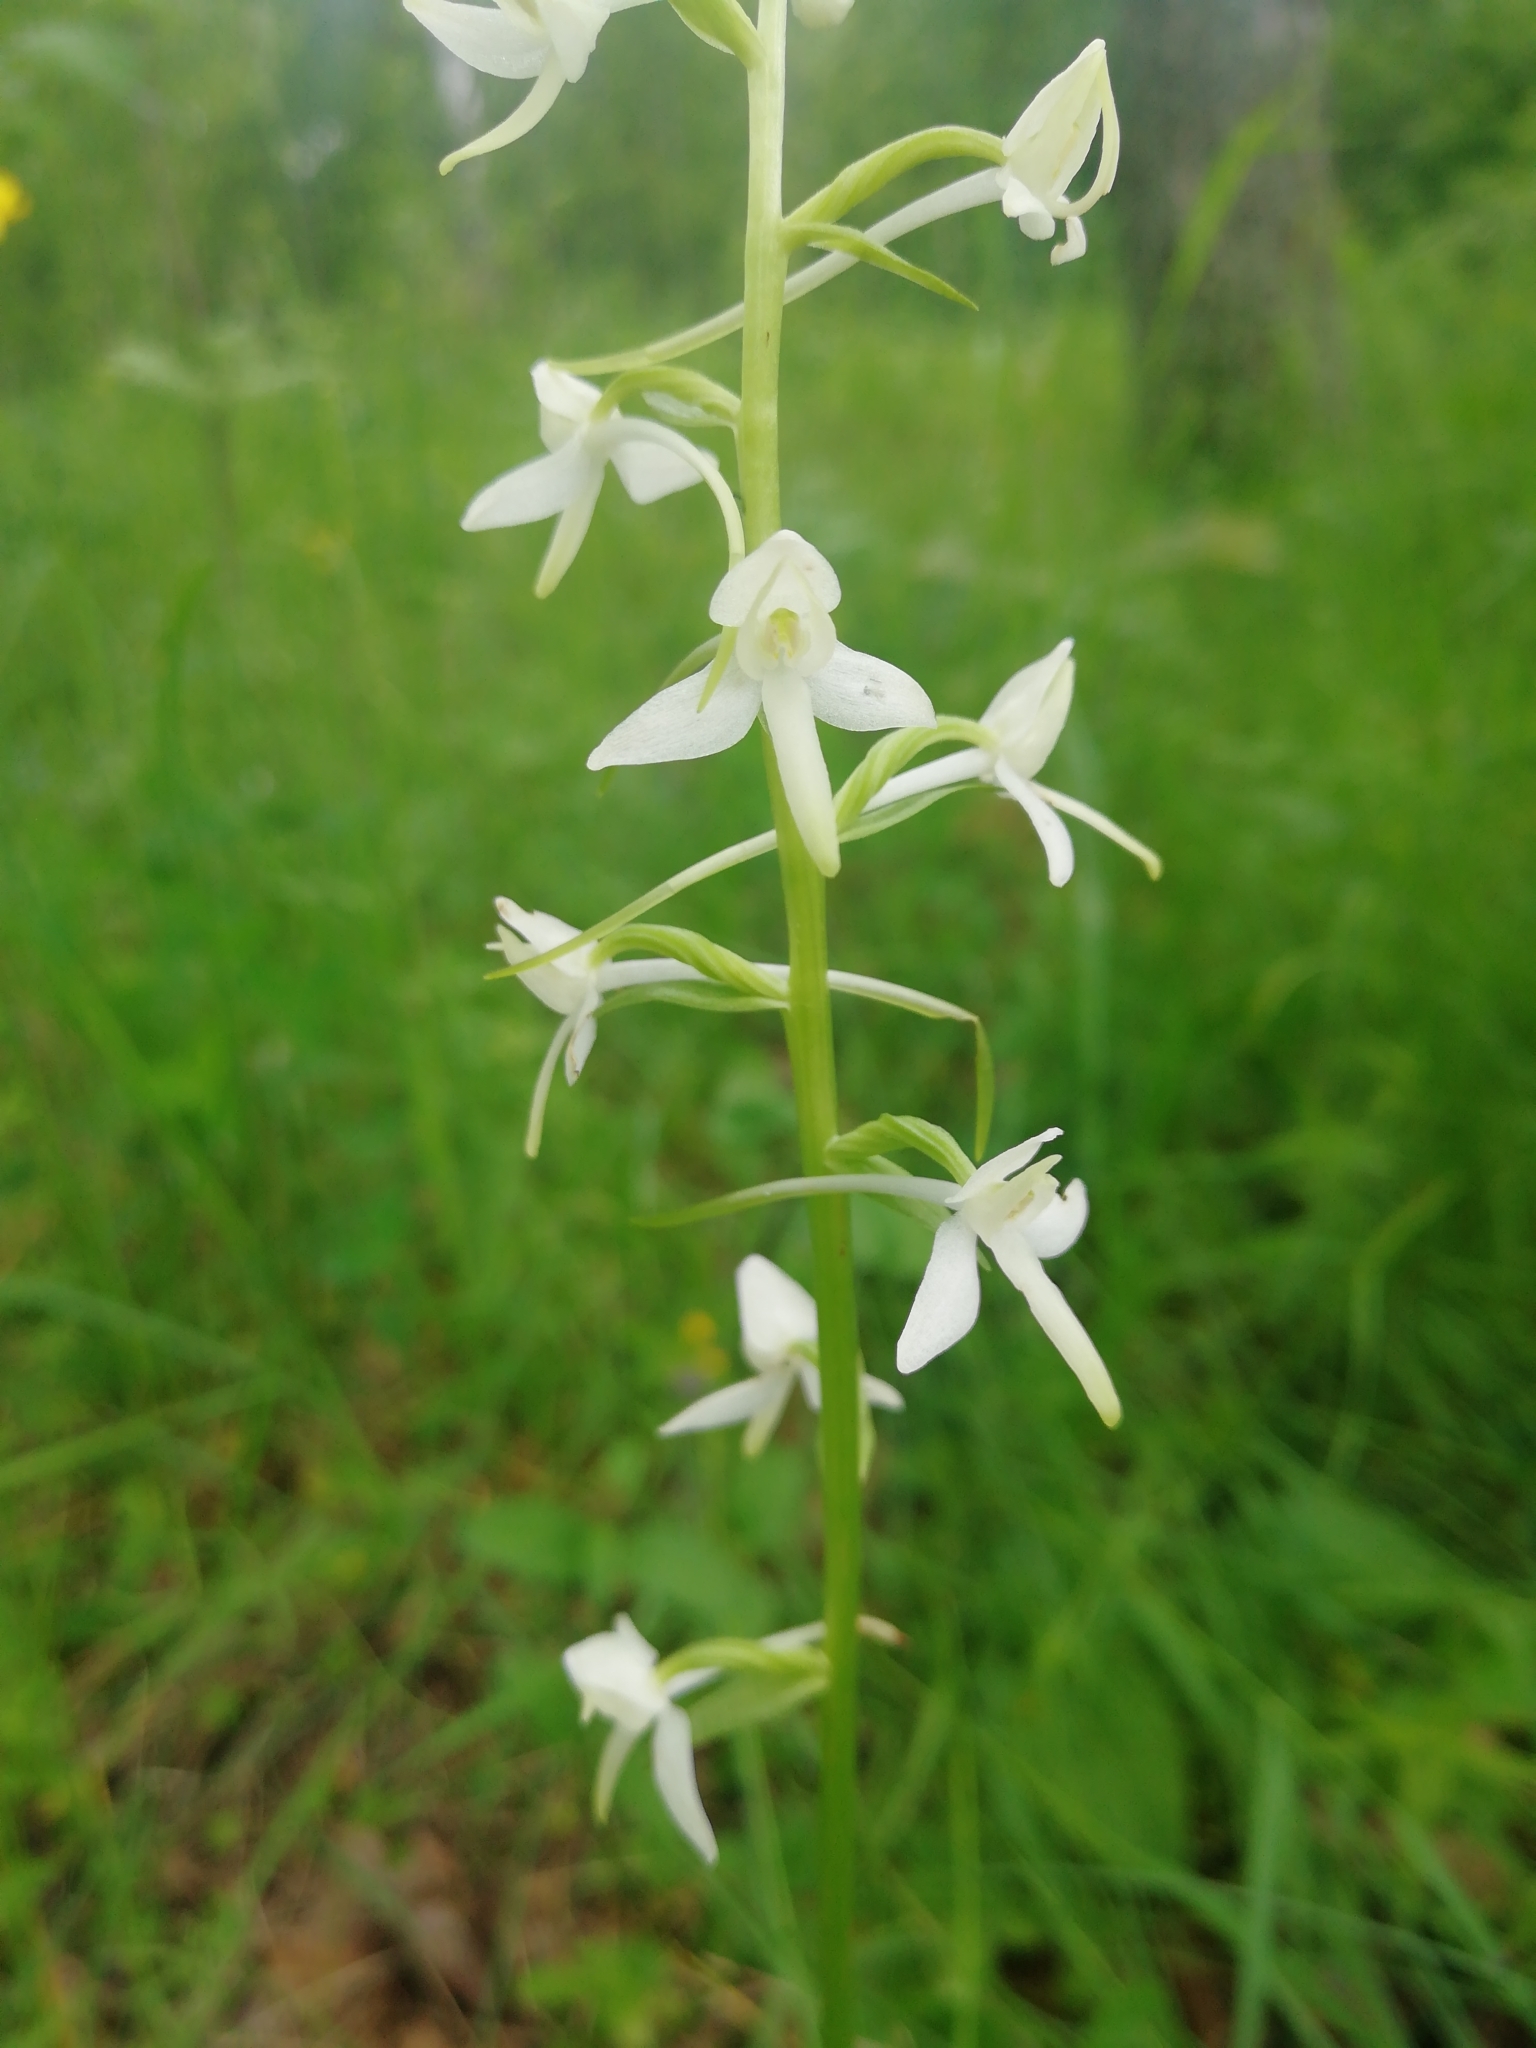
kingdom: Plantae
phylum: Tracheophyta
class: Liliopsida
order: Asparagales
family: Orchidaceae
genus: Platanthera
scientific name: Platanthera bifolia
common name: Lesser butterfly-orchid
